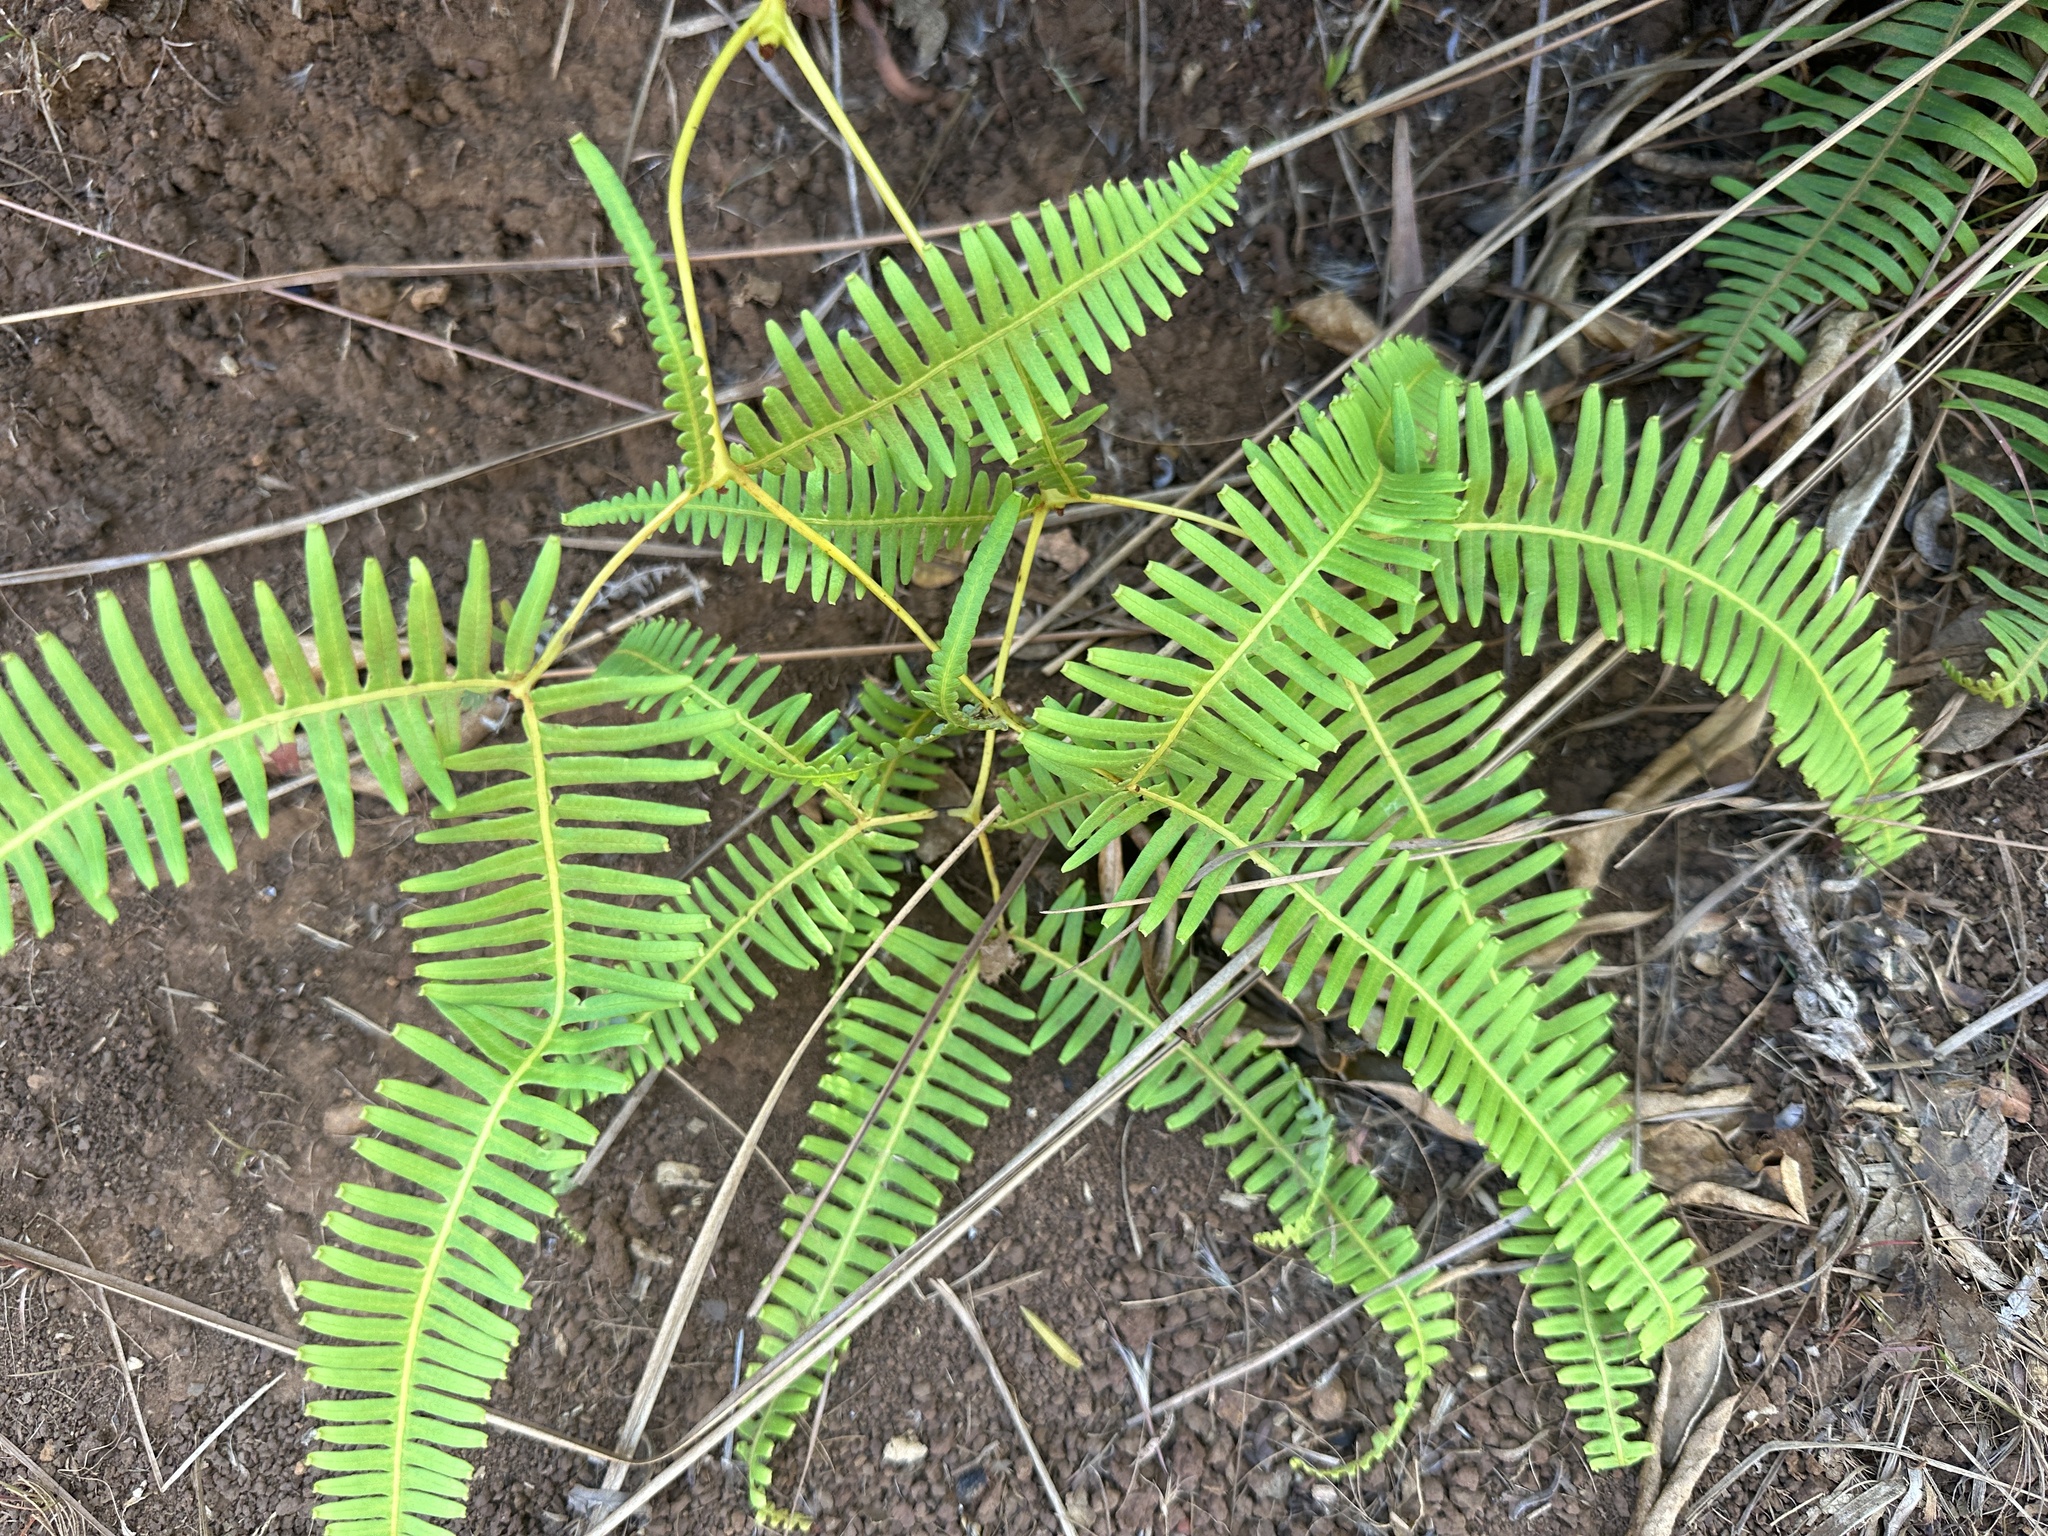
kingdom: Plantae
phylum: Tracheophyta
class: Polypodiopsida
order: Gleicheniales
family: Gleicheniaceae
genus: Dicranopteris
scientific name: Dicranopteris linearis
